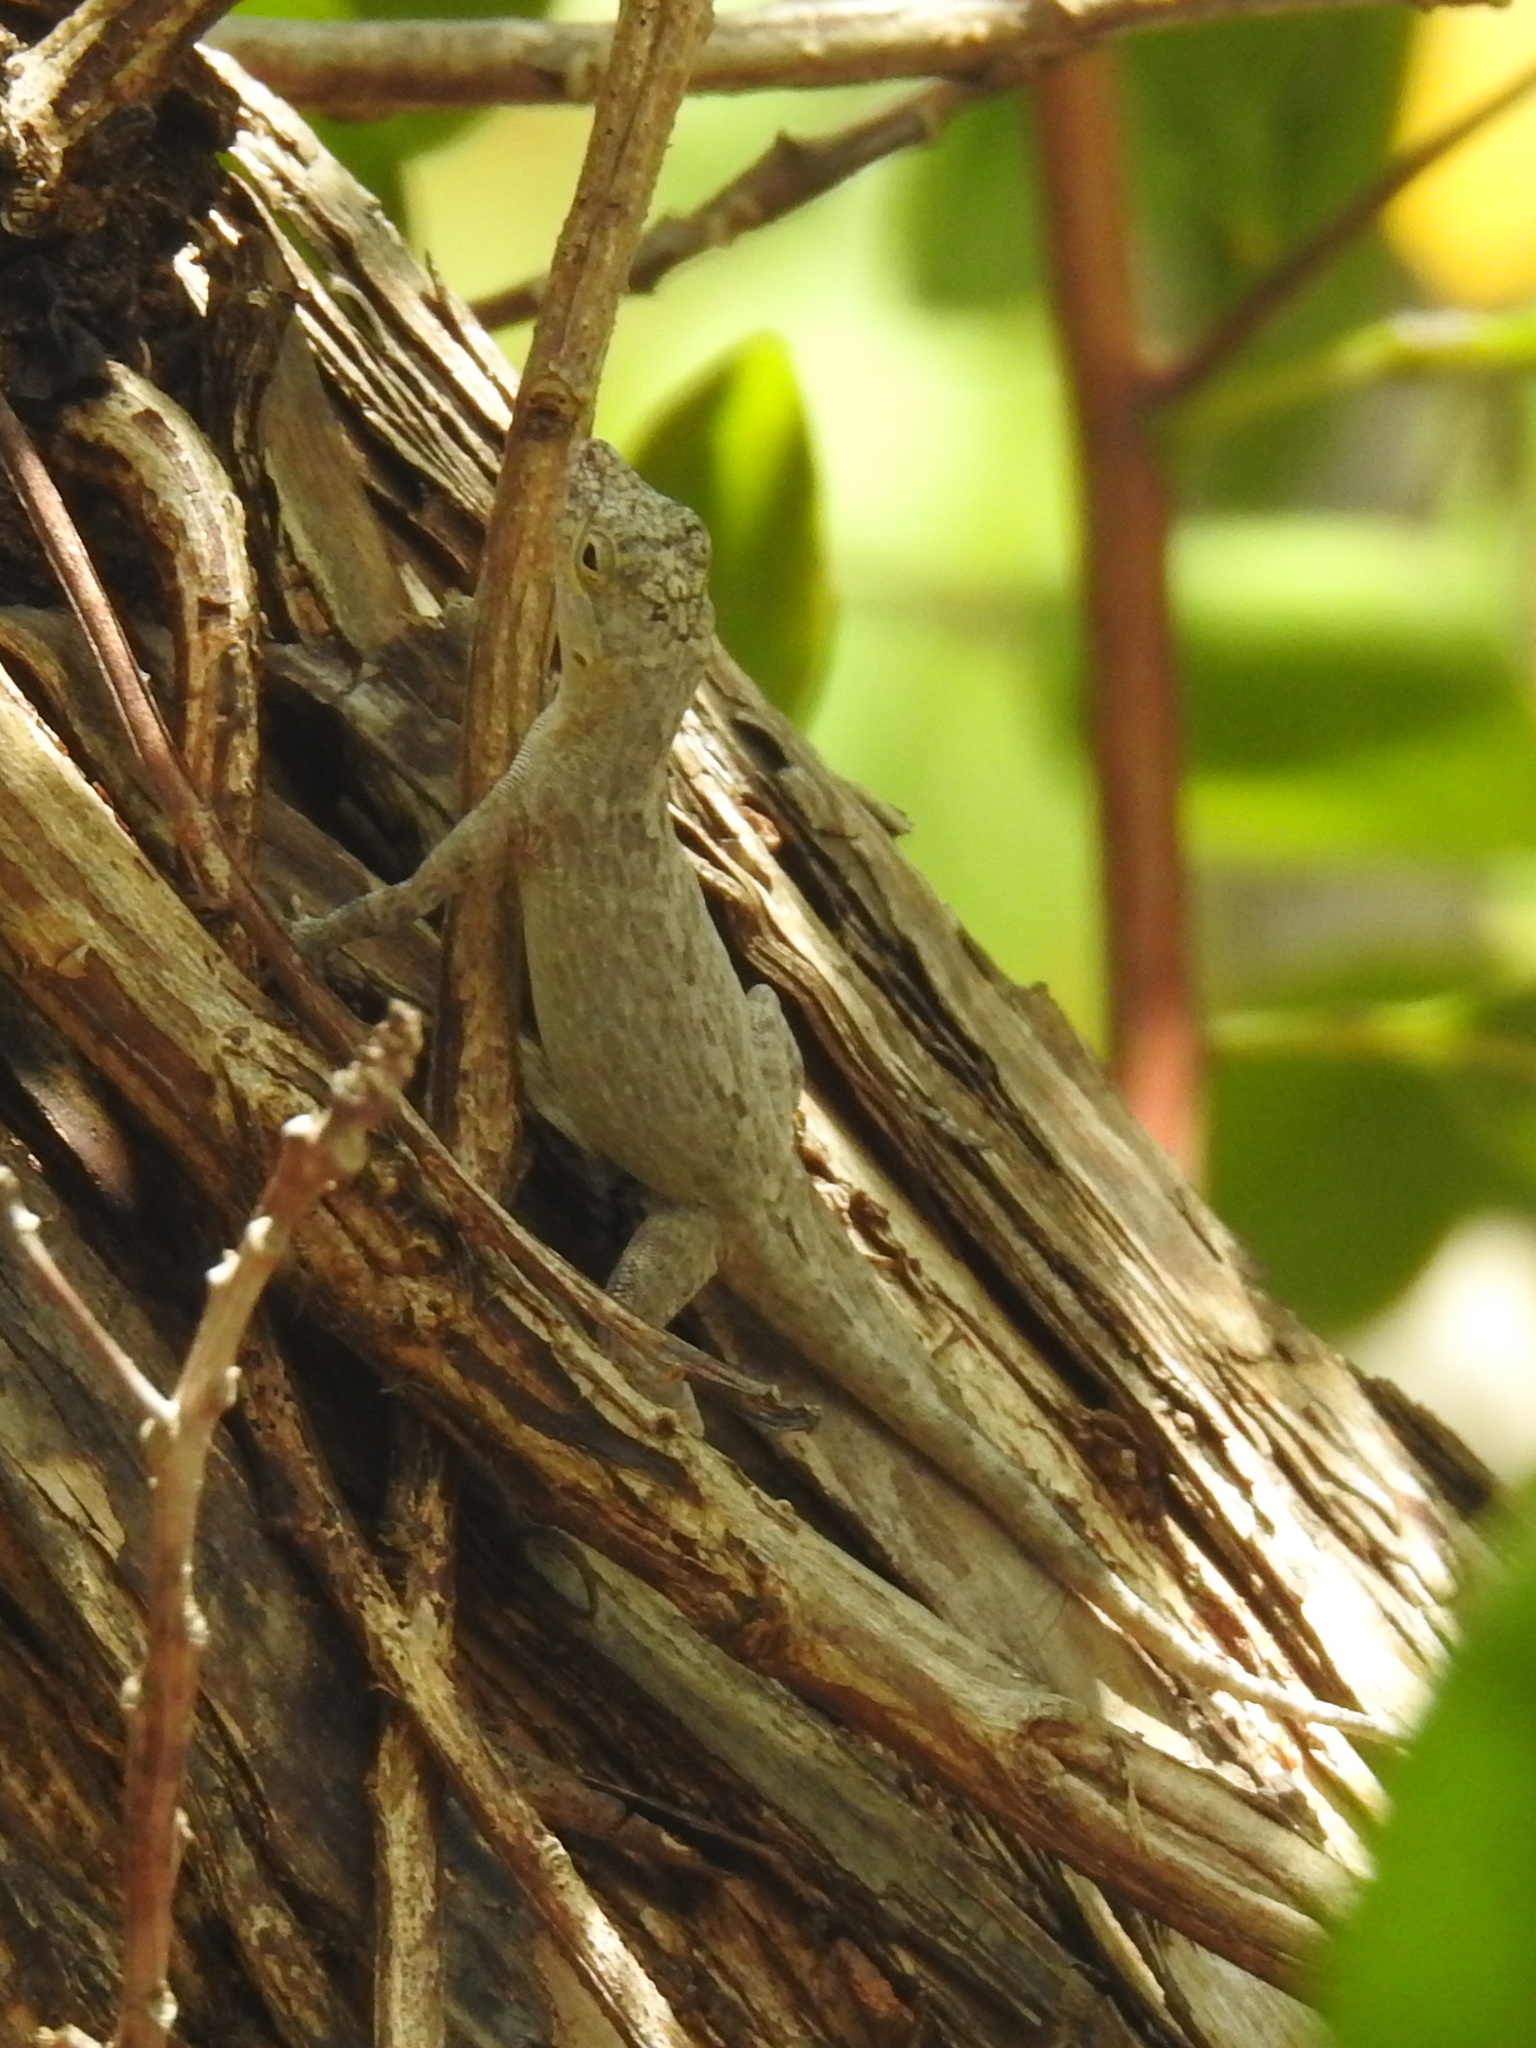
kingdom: Animalia
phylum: Chordata
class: Squamata
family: Dactyloidae
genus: Anolis
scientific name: Anolis distichus
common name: Bark anole
